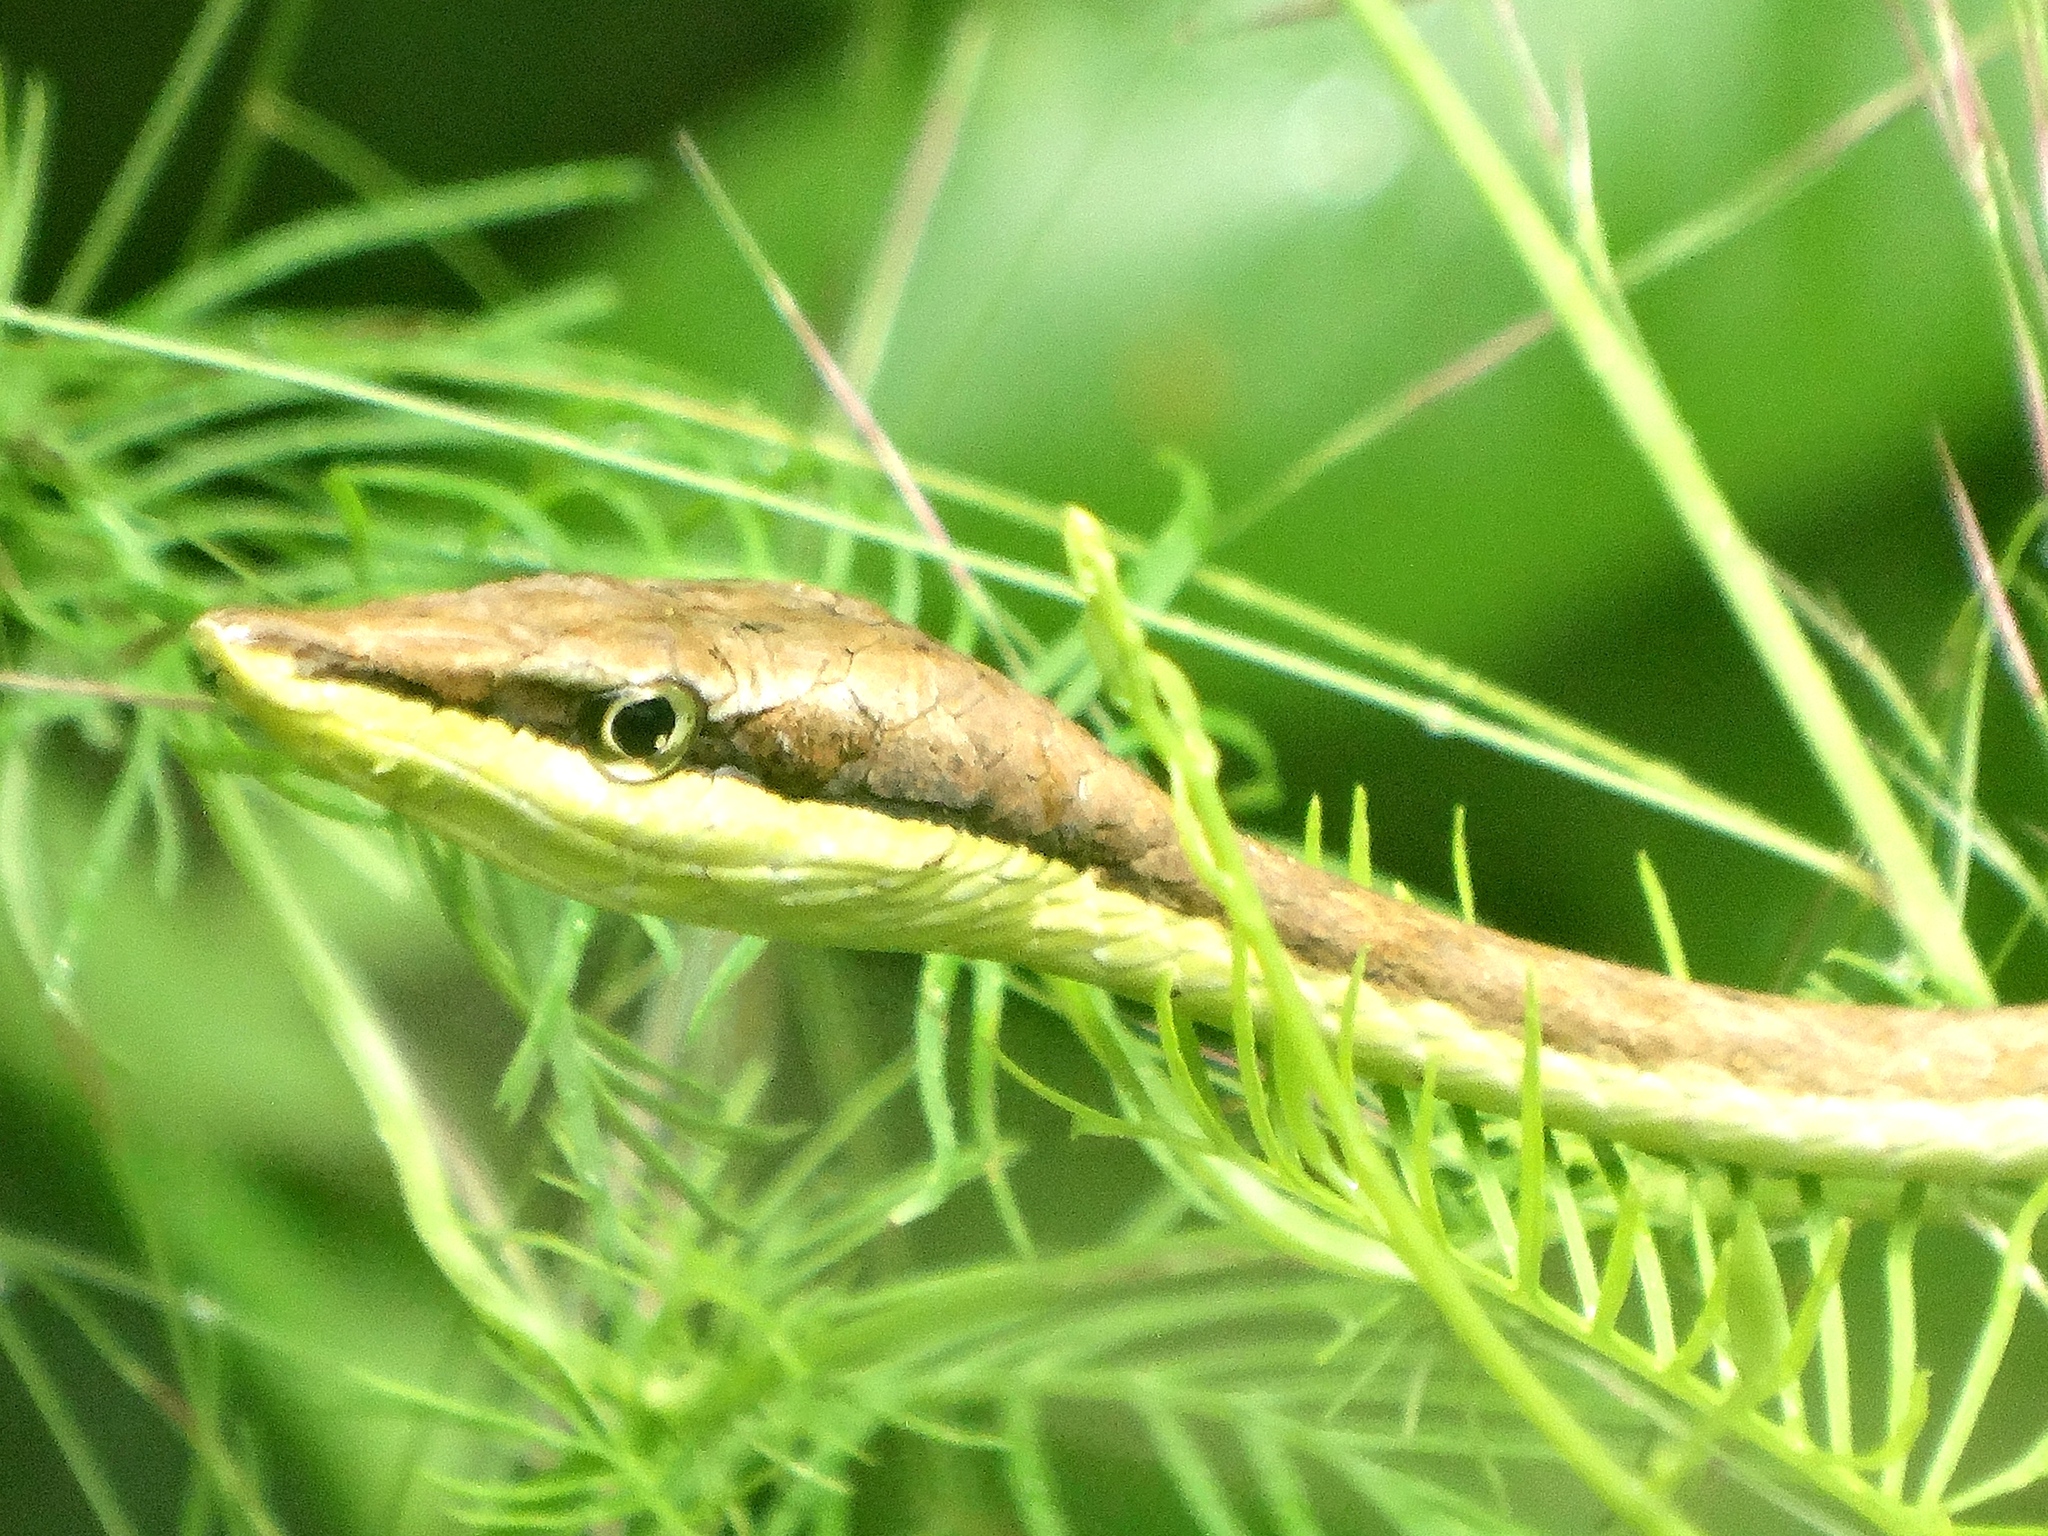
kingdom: Animalia
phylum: Chordata
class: Squamata
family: Colubridae
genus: Oxybelis
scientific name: Oxybelis microphthalmus
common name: Thrornscrub vine snake
